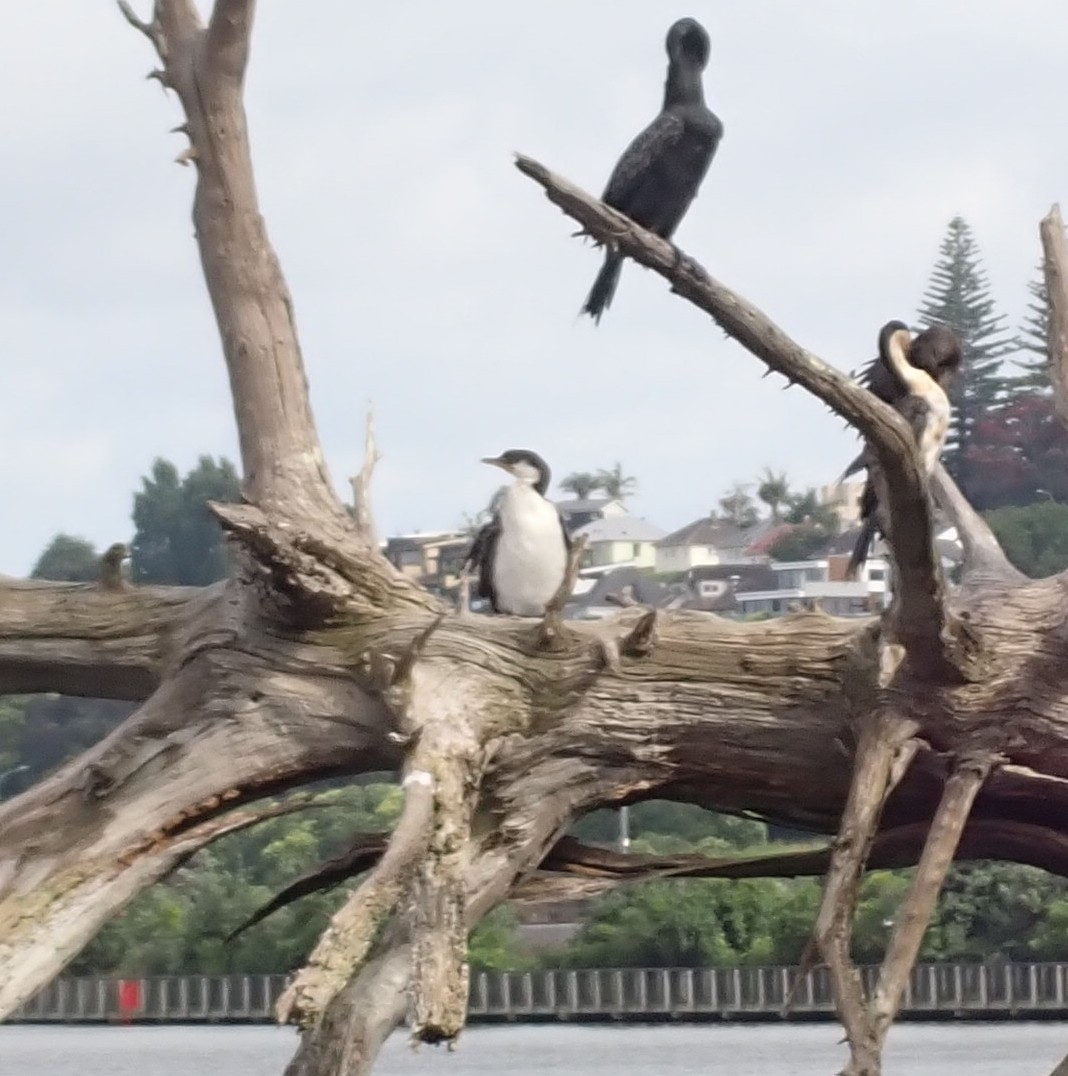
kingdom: Animalia
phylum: Chordata
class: Aves
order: Suliformes
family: Phalacrocoracidae
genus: Phalacrocorax
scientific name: Phalacrocorax varius
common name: Pied cormorant
